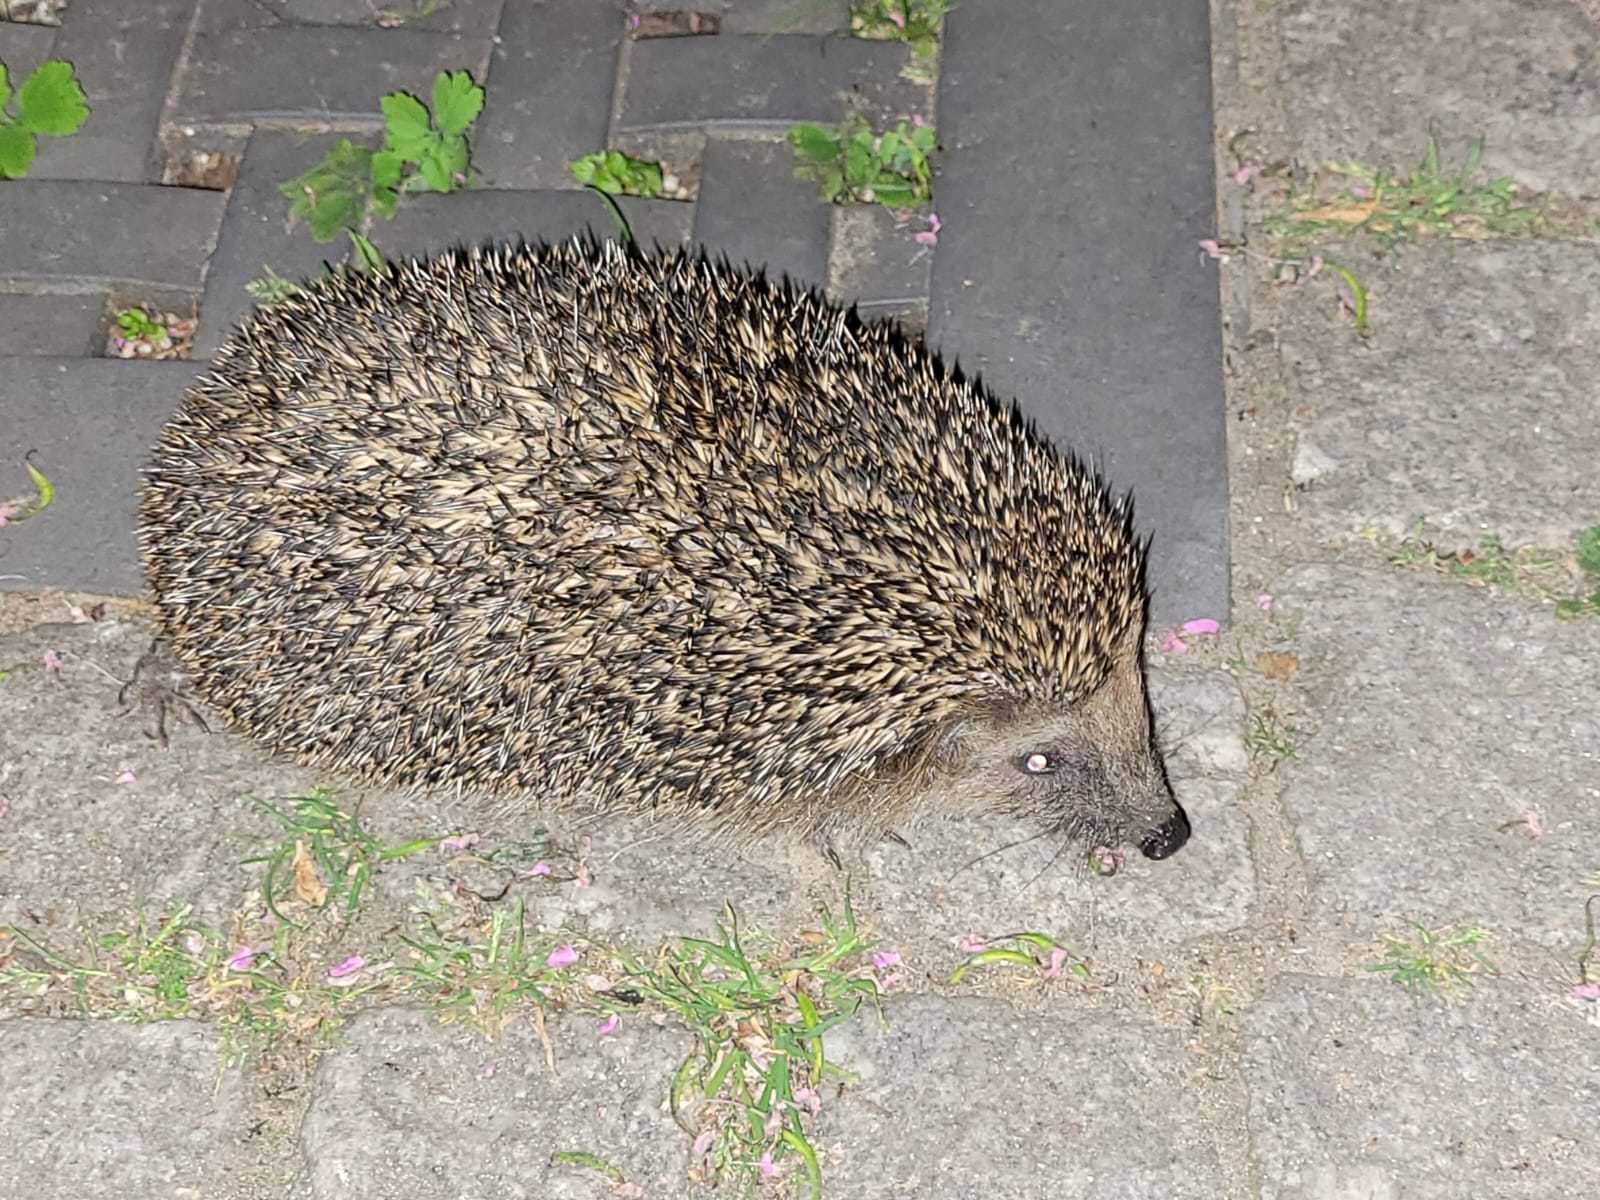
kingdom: Animalia
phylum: Chordata
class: Mammalia
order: Erinaceomorpha
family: Erinaceidae
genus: Erinaceus
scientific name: Erinaceus europaeus
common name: West european hedgehog
